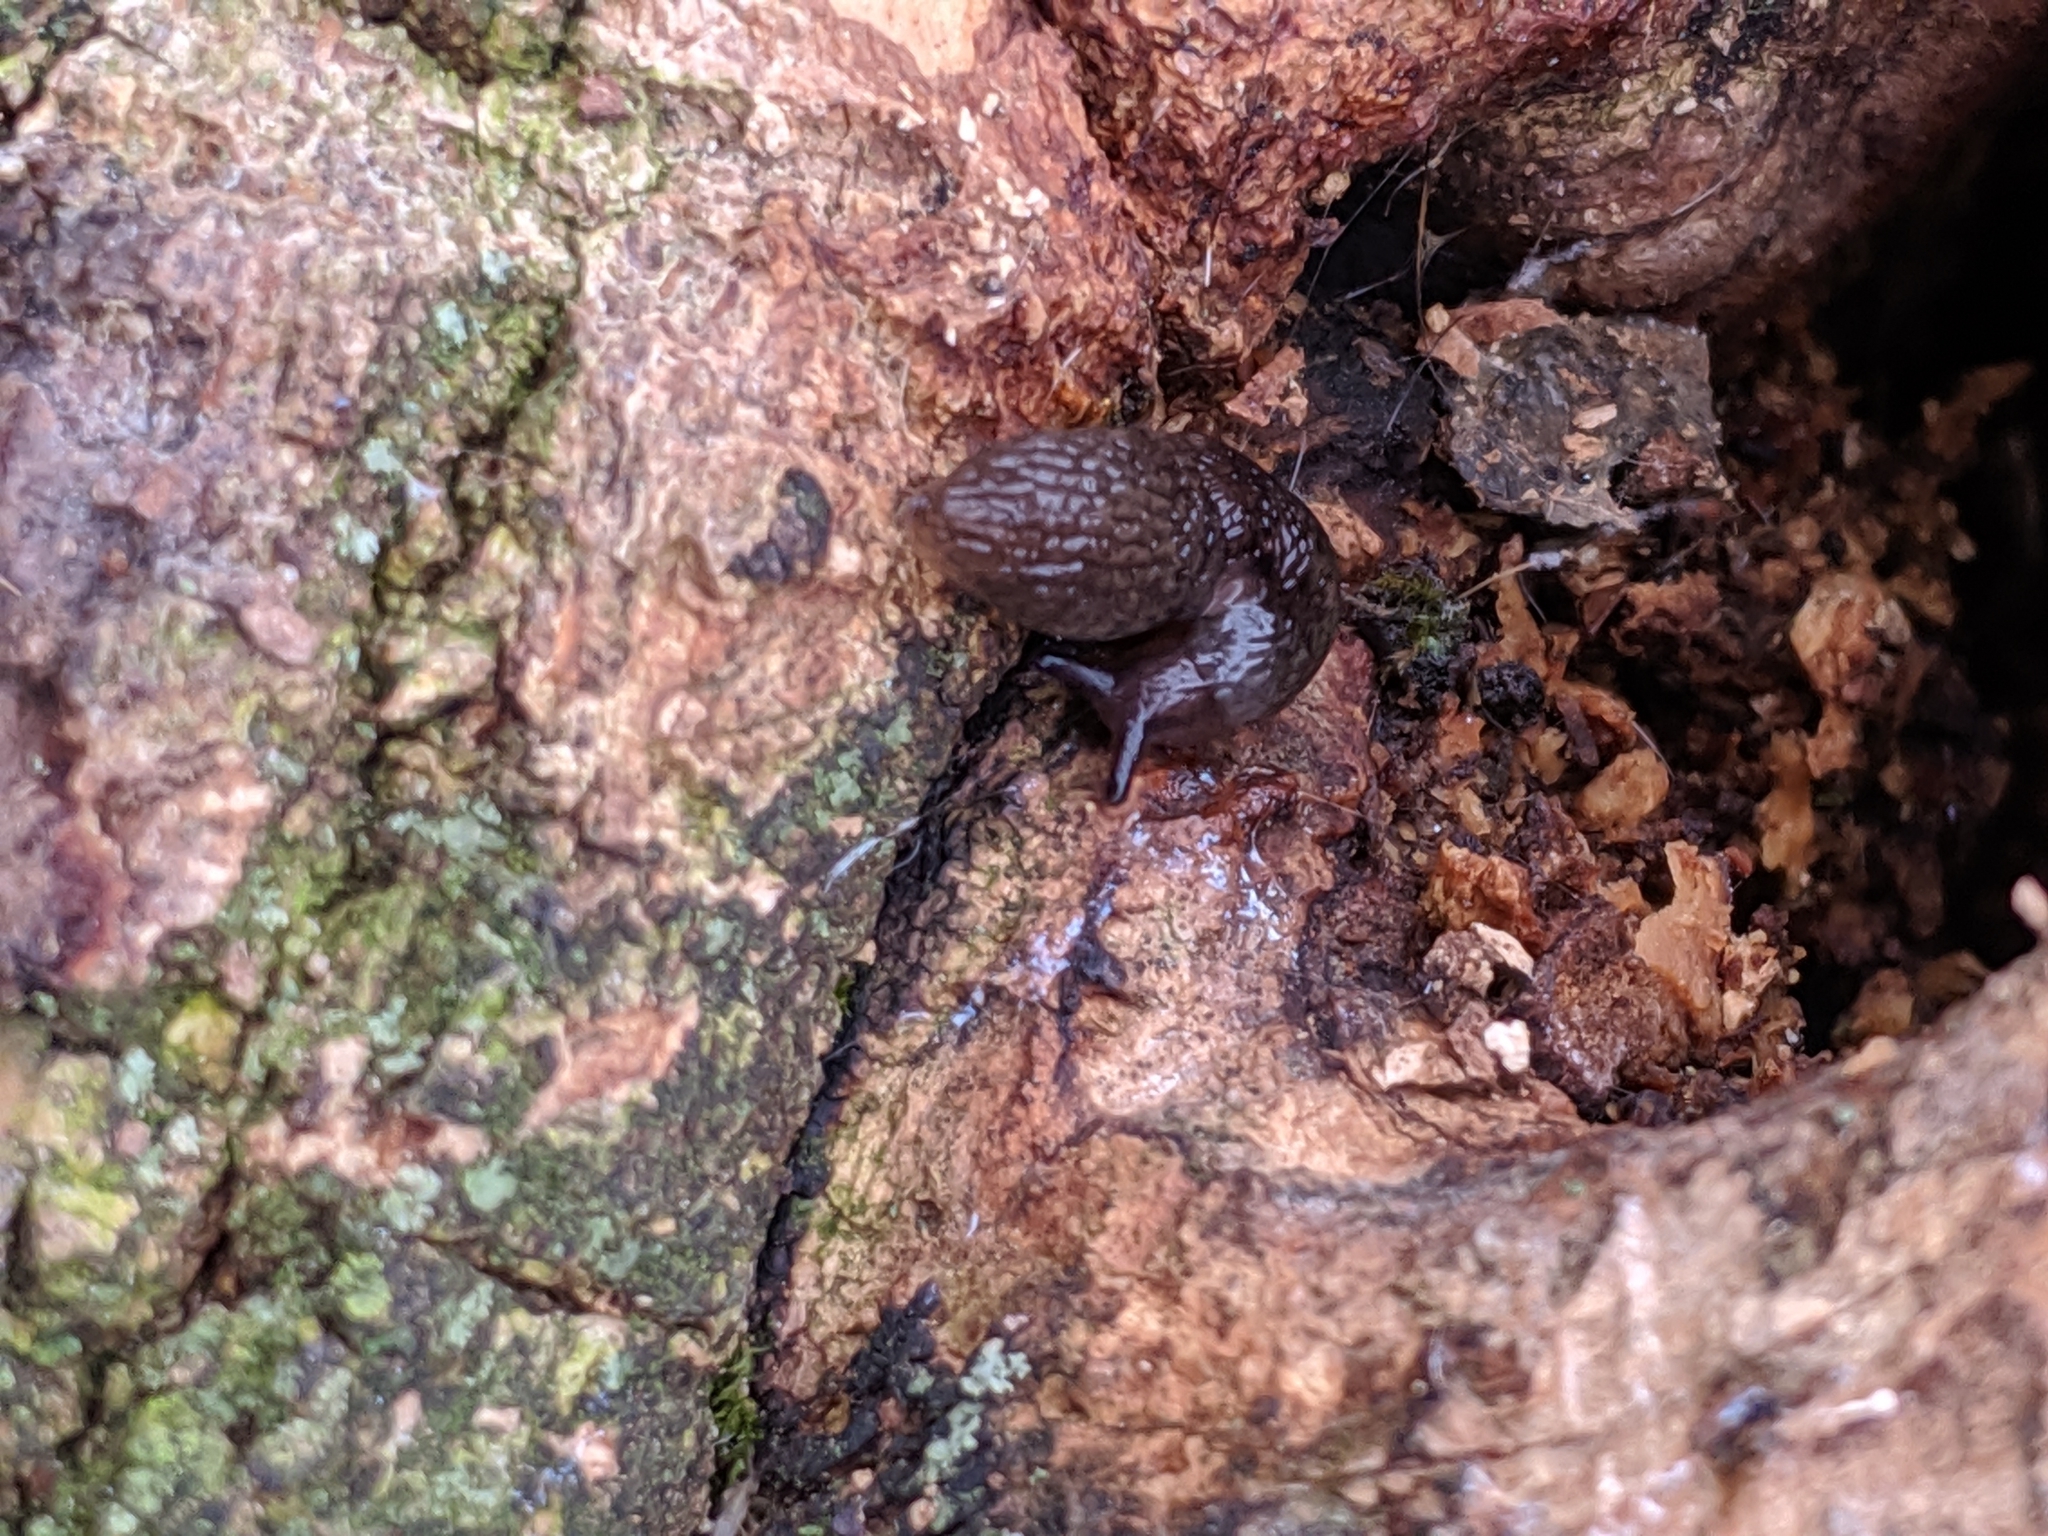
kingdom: Animalia
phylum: Mollusca
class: Gastropoda
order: Stylommatophora
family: Agriolimacidae
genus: Deroceras
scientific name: Deroceras
